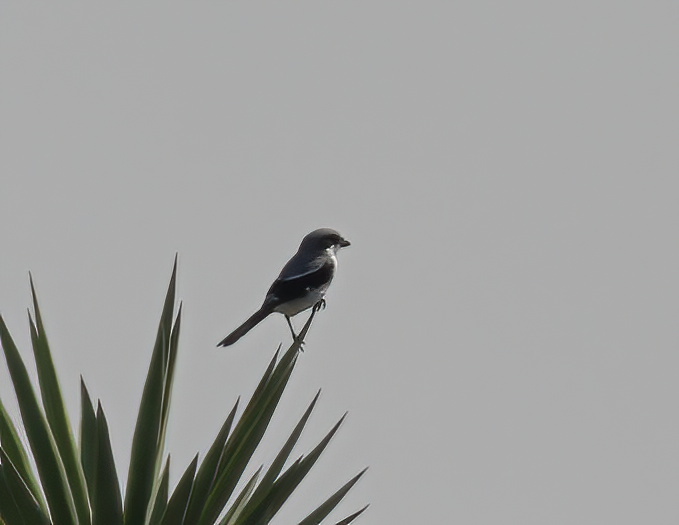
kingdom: Animalia
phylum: Chordata
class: Aves
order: Passeriformes
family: Laniidae
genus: Lanius
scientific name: Lanius ludovicianus
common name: Loggerhead shrike
